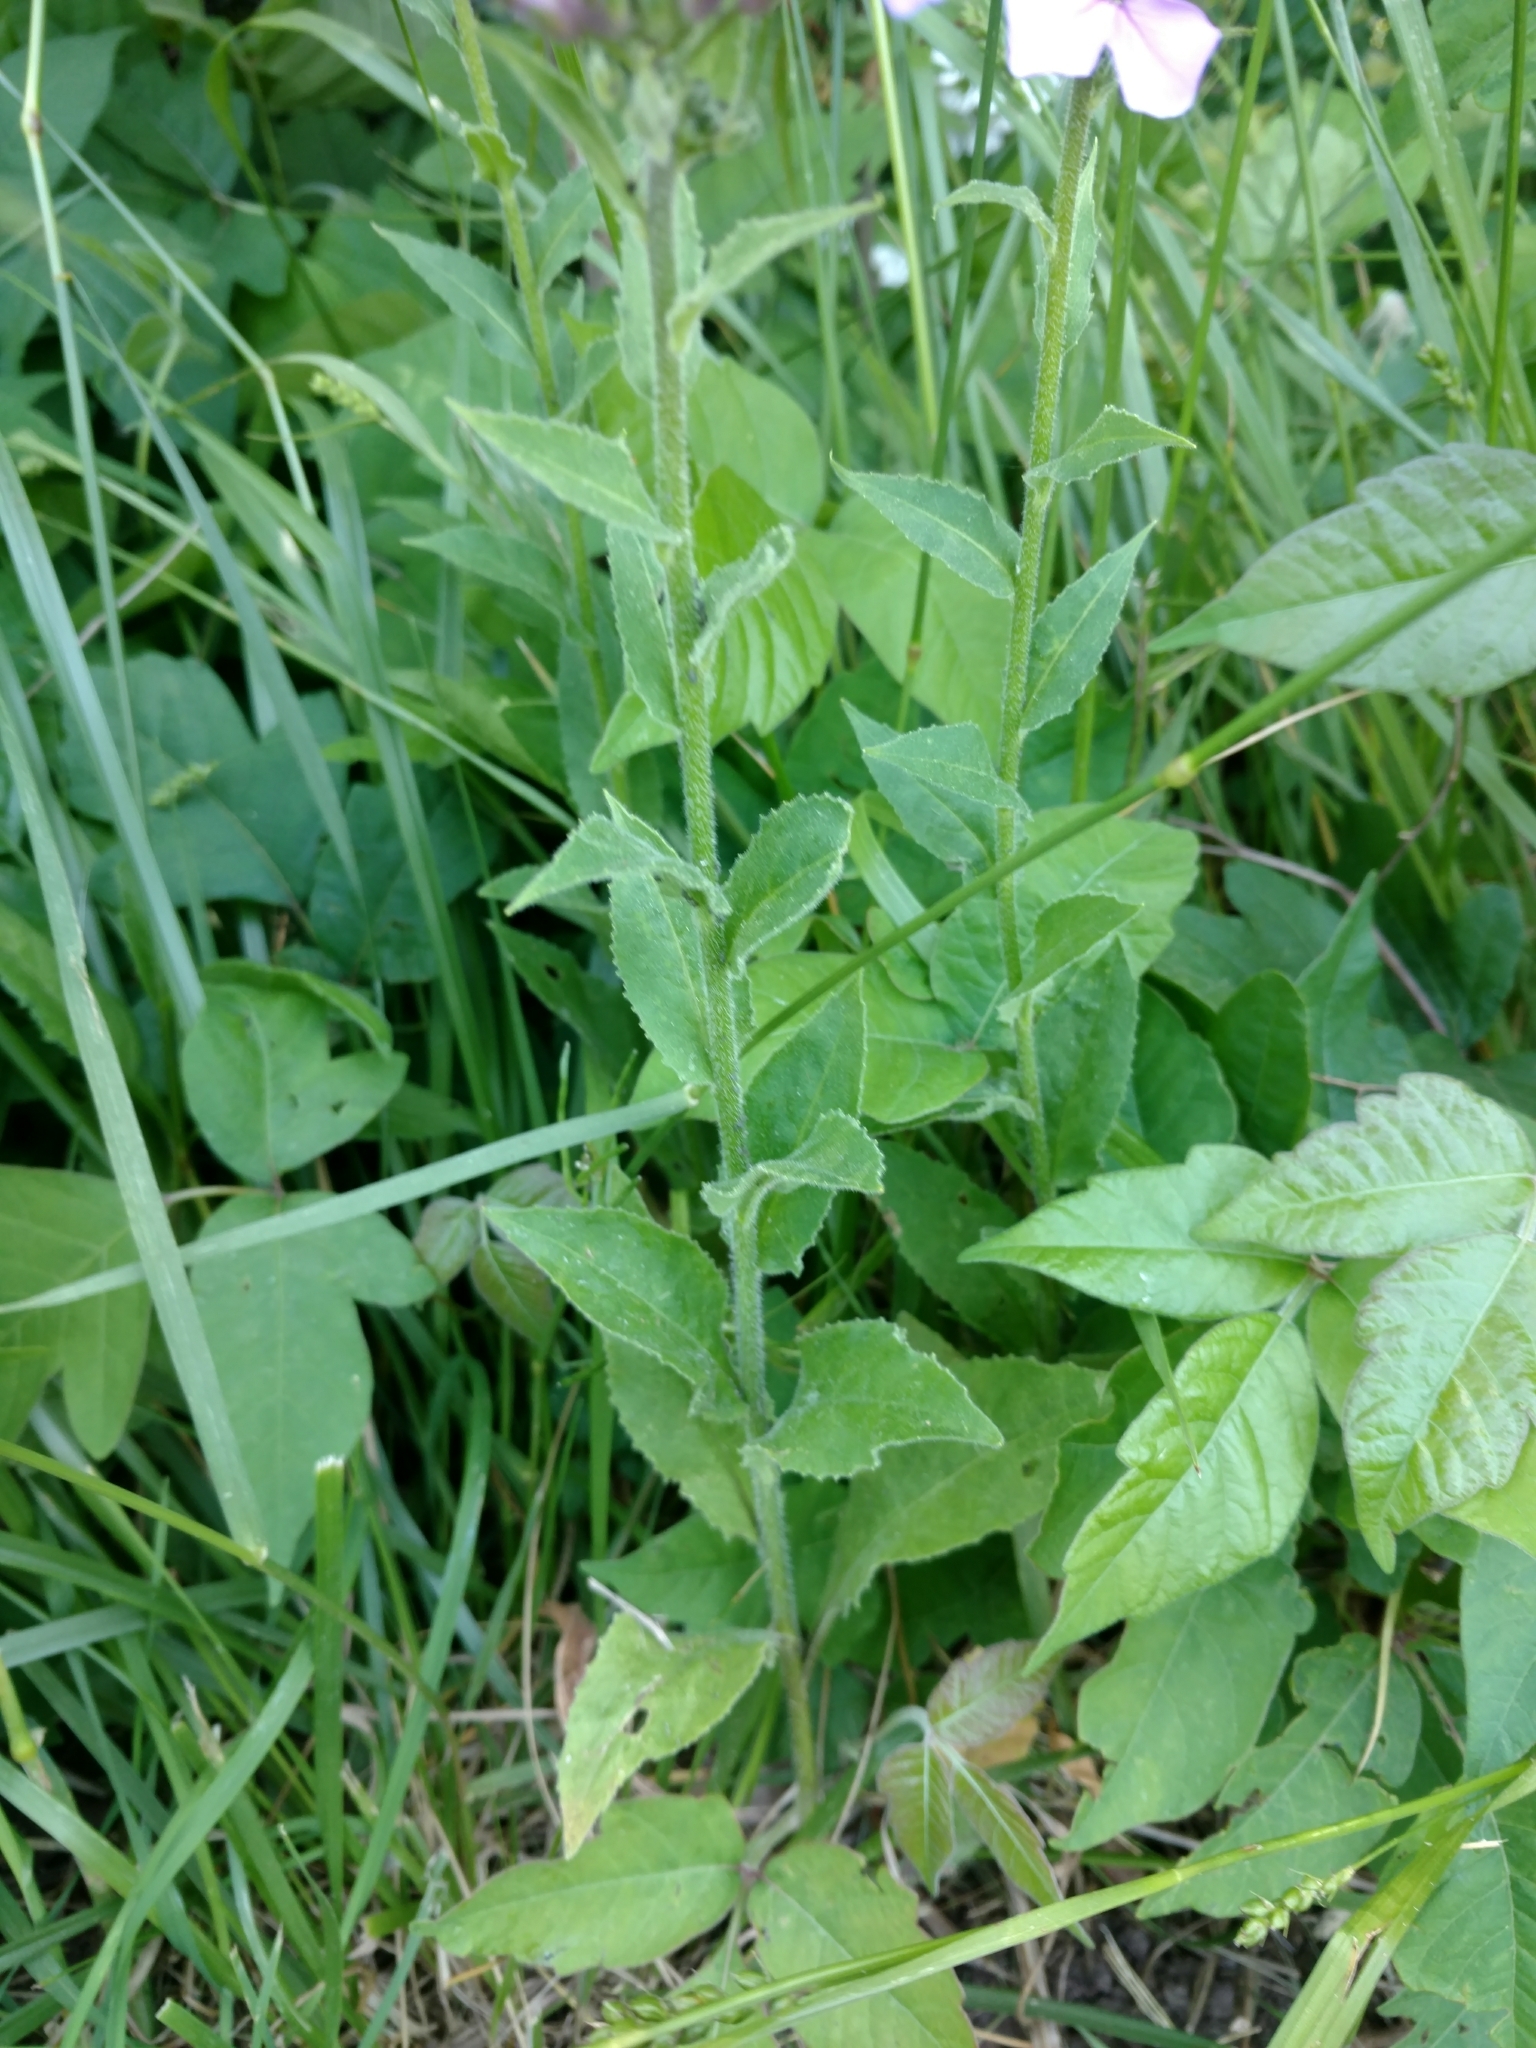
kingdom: Plantae
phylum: Tracheophyta
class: Magnoliopsida
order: Brassicales
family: Brassicaceae
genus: Hesperis
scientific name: Hesperis matronalis
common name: Dame's-violet
